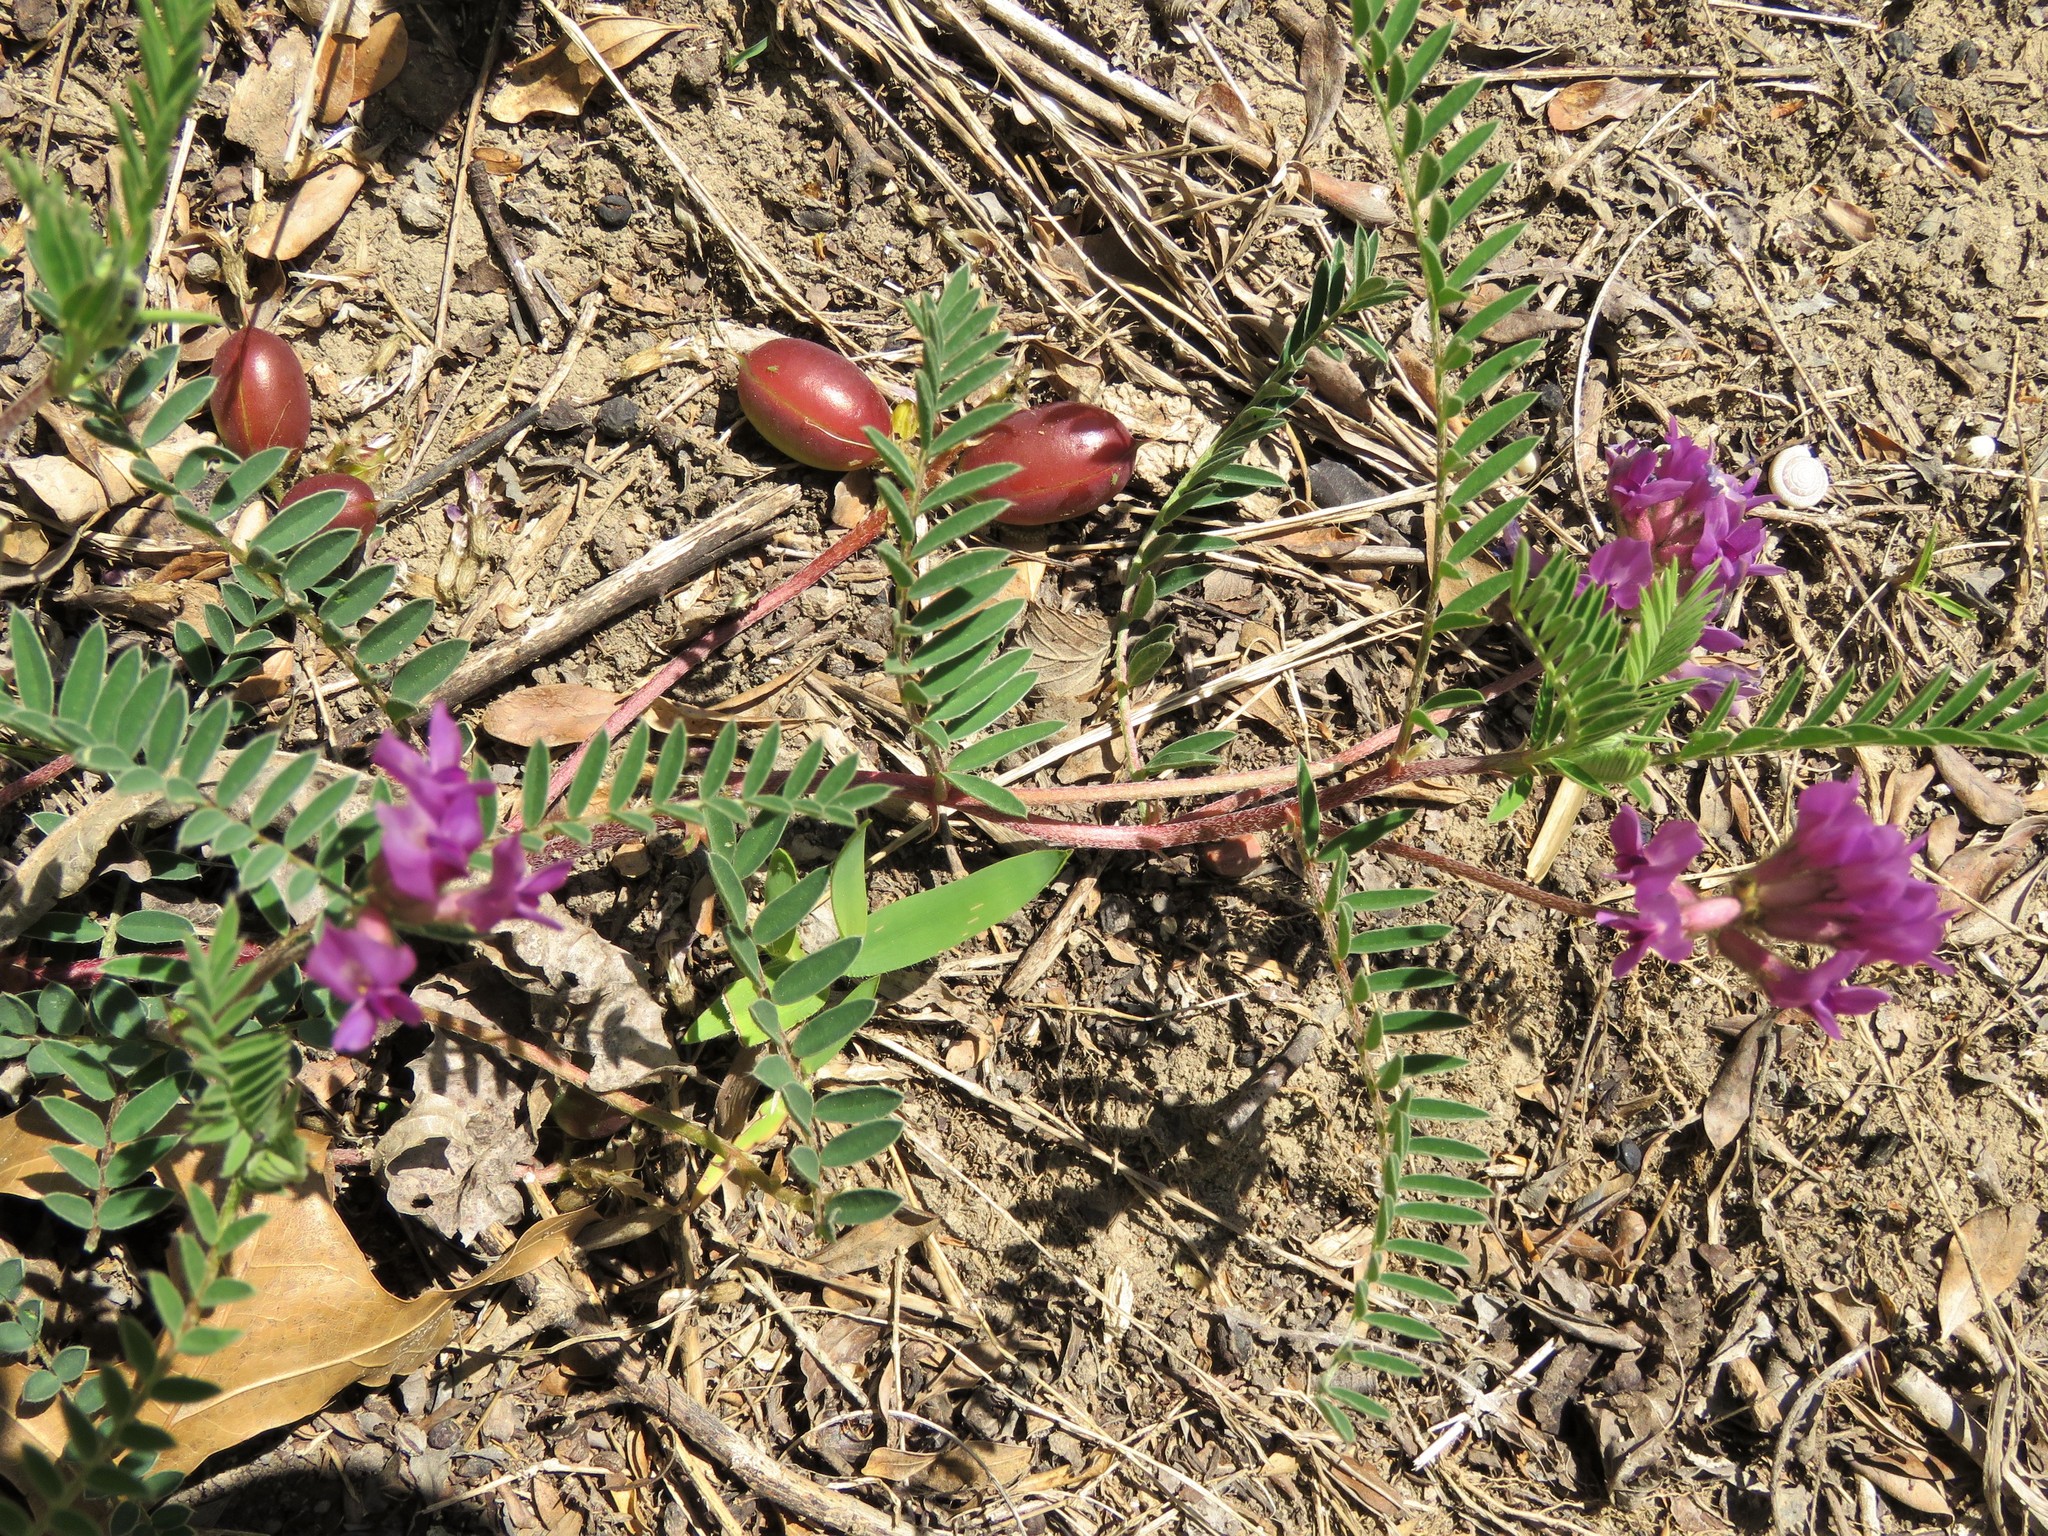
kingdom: Plantae
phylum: Tracheophyta
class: Magnoliopsida
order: Fabales
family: Fabaceae
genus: Astragalus
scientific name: Astragalus crassicarpus
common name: Ground-plum milk-vetch
